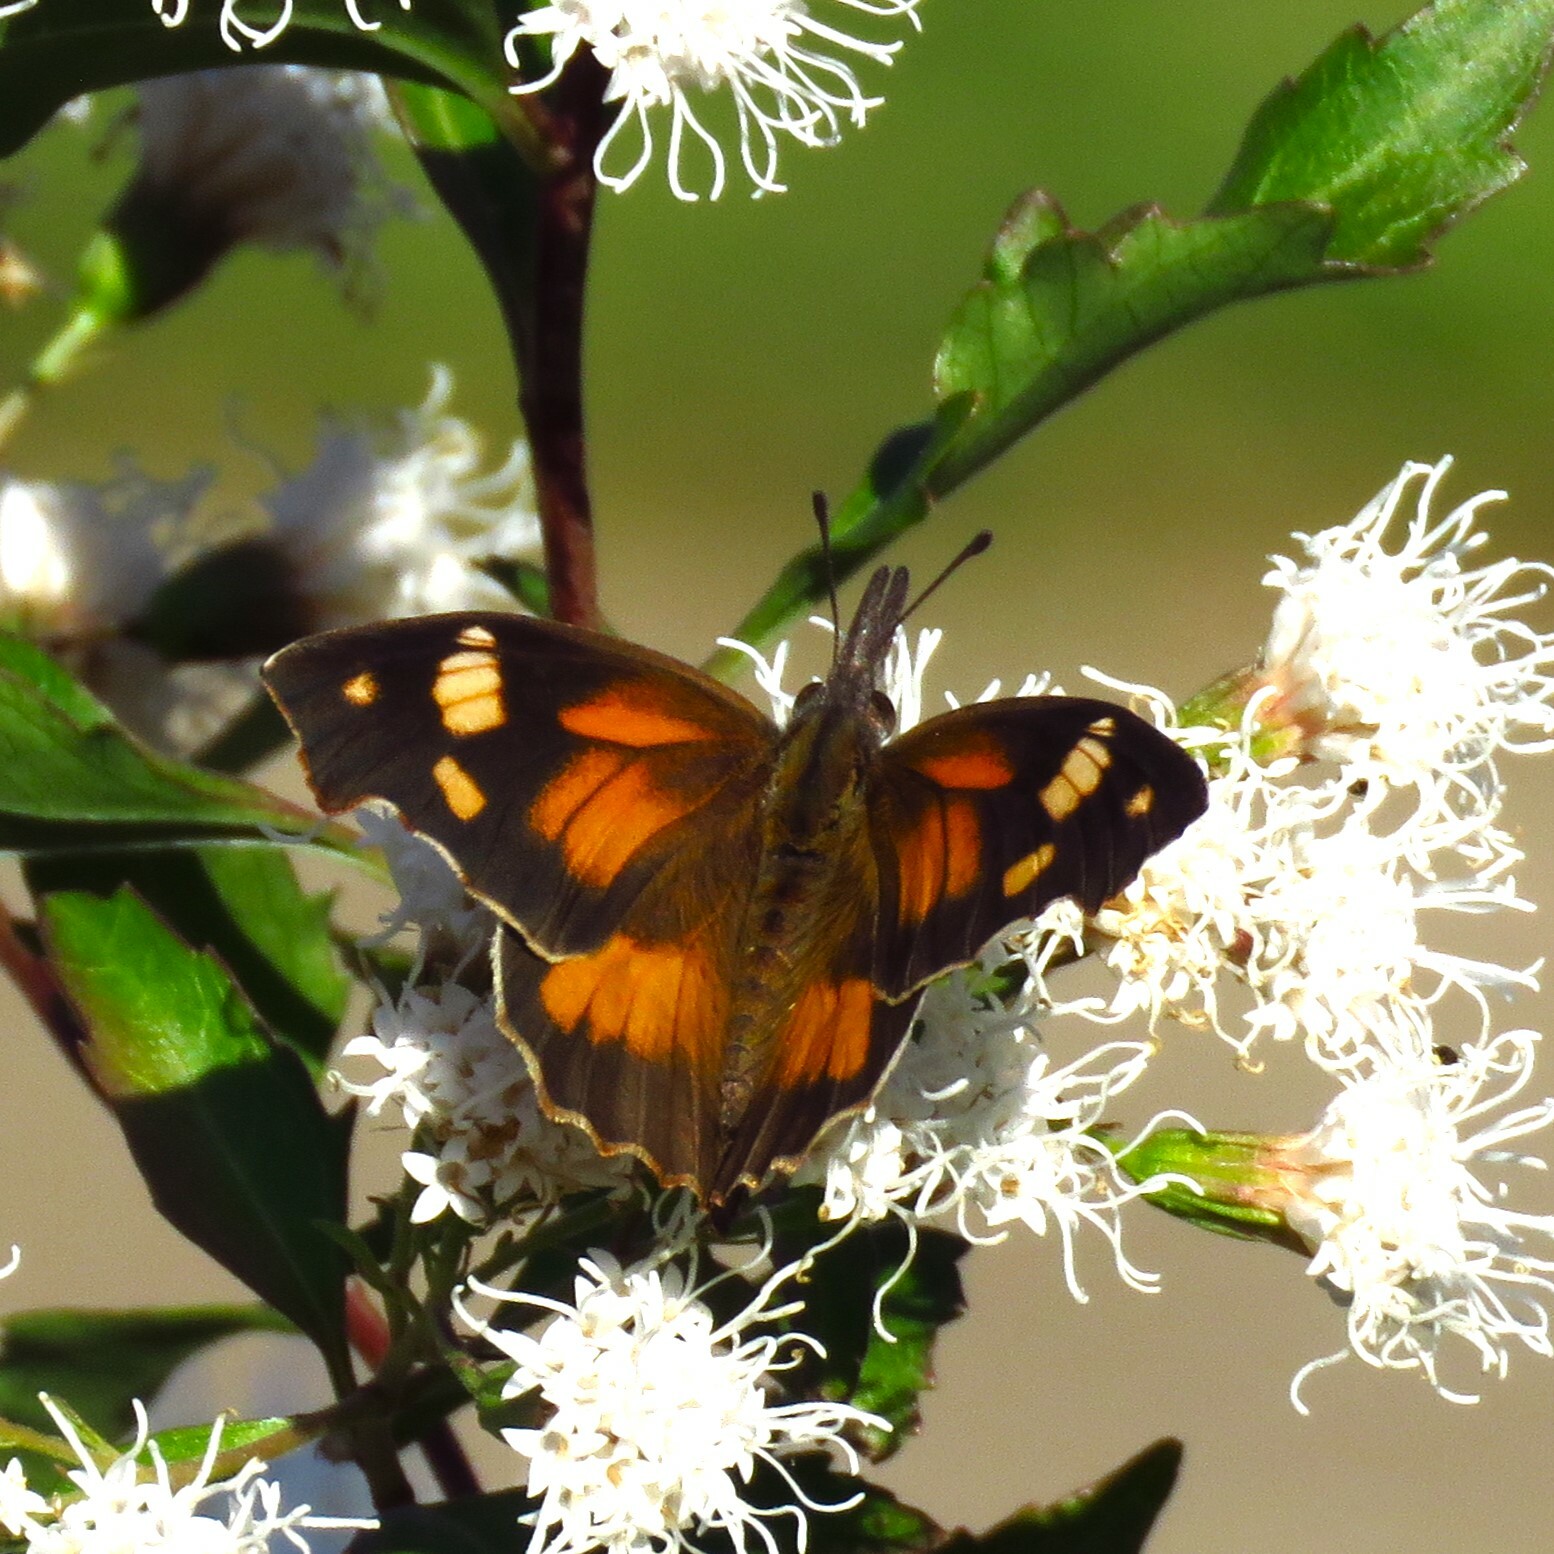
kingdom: Animalia
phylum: Arthropoda
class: Insecta
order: Lepidoptera
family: Nymphalidae
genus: Libytheana
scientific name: Libytheana carinenta
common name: American snout
